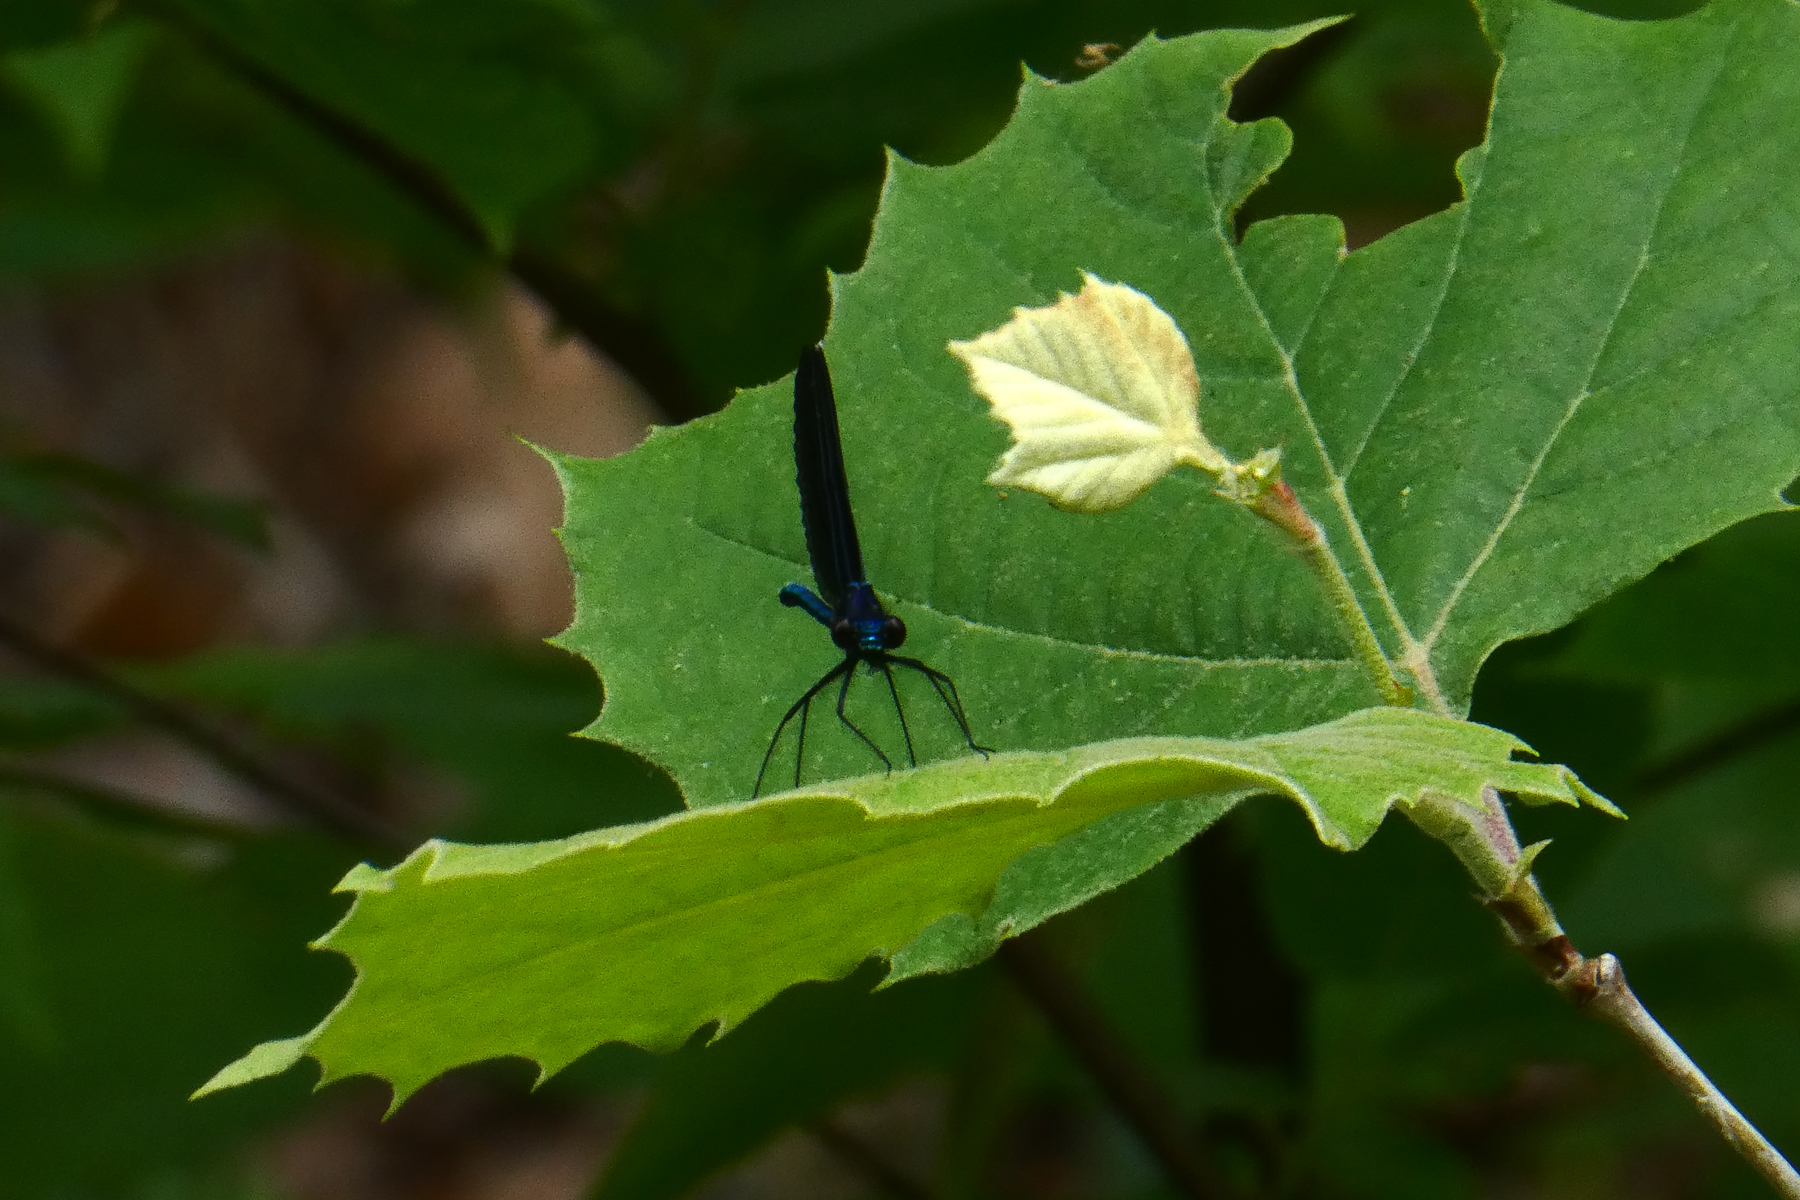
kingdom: Animalia
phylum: Arthropoda
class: Insecta
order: Odonata
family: Calopterygidae
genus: Calopteryx
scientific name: Calopteryx maculata
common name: Ebony jewelwing
